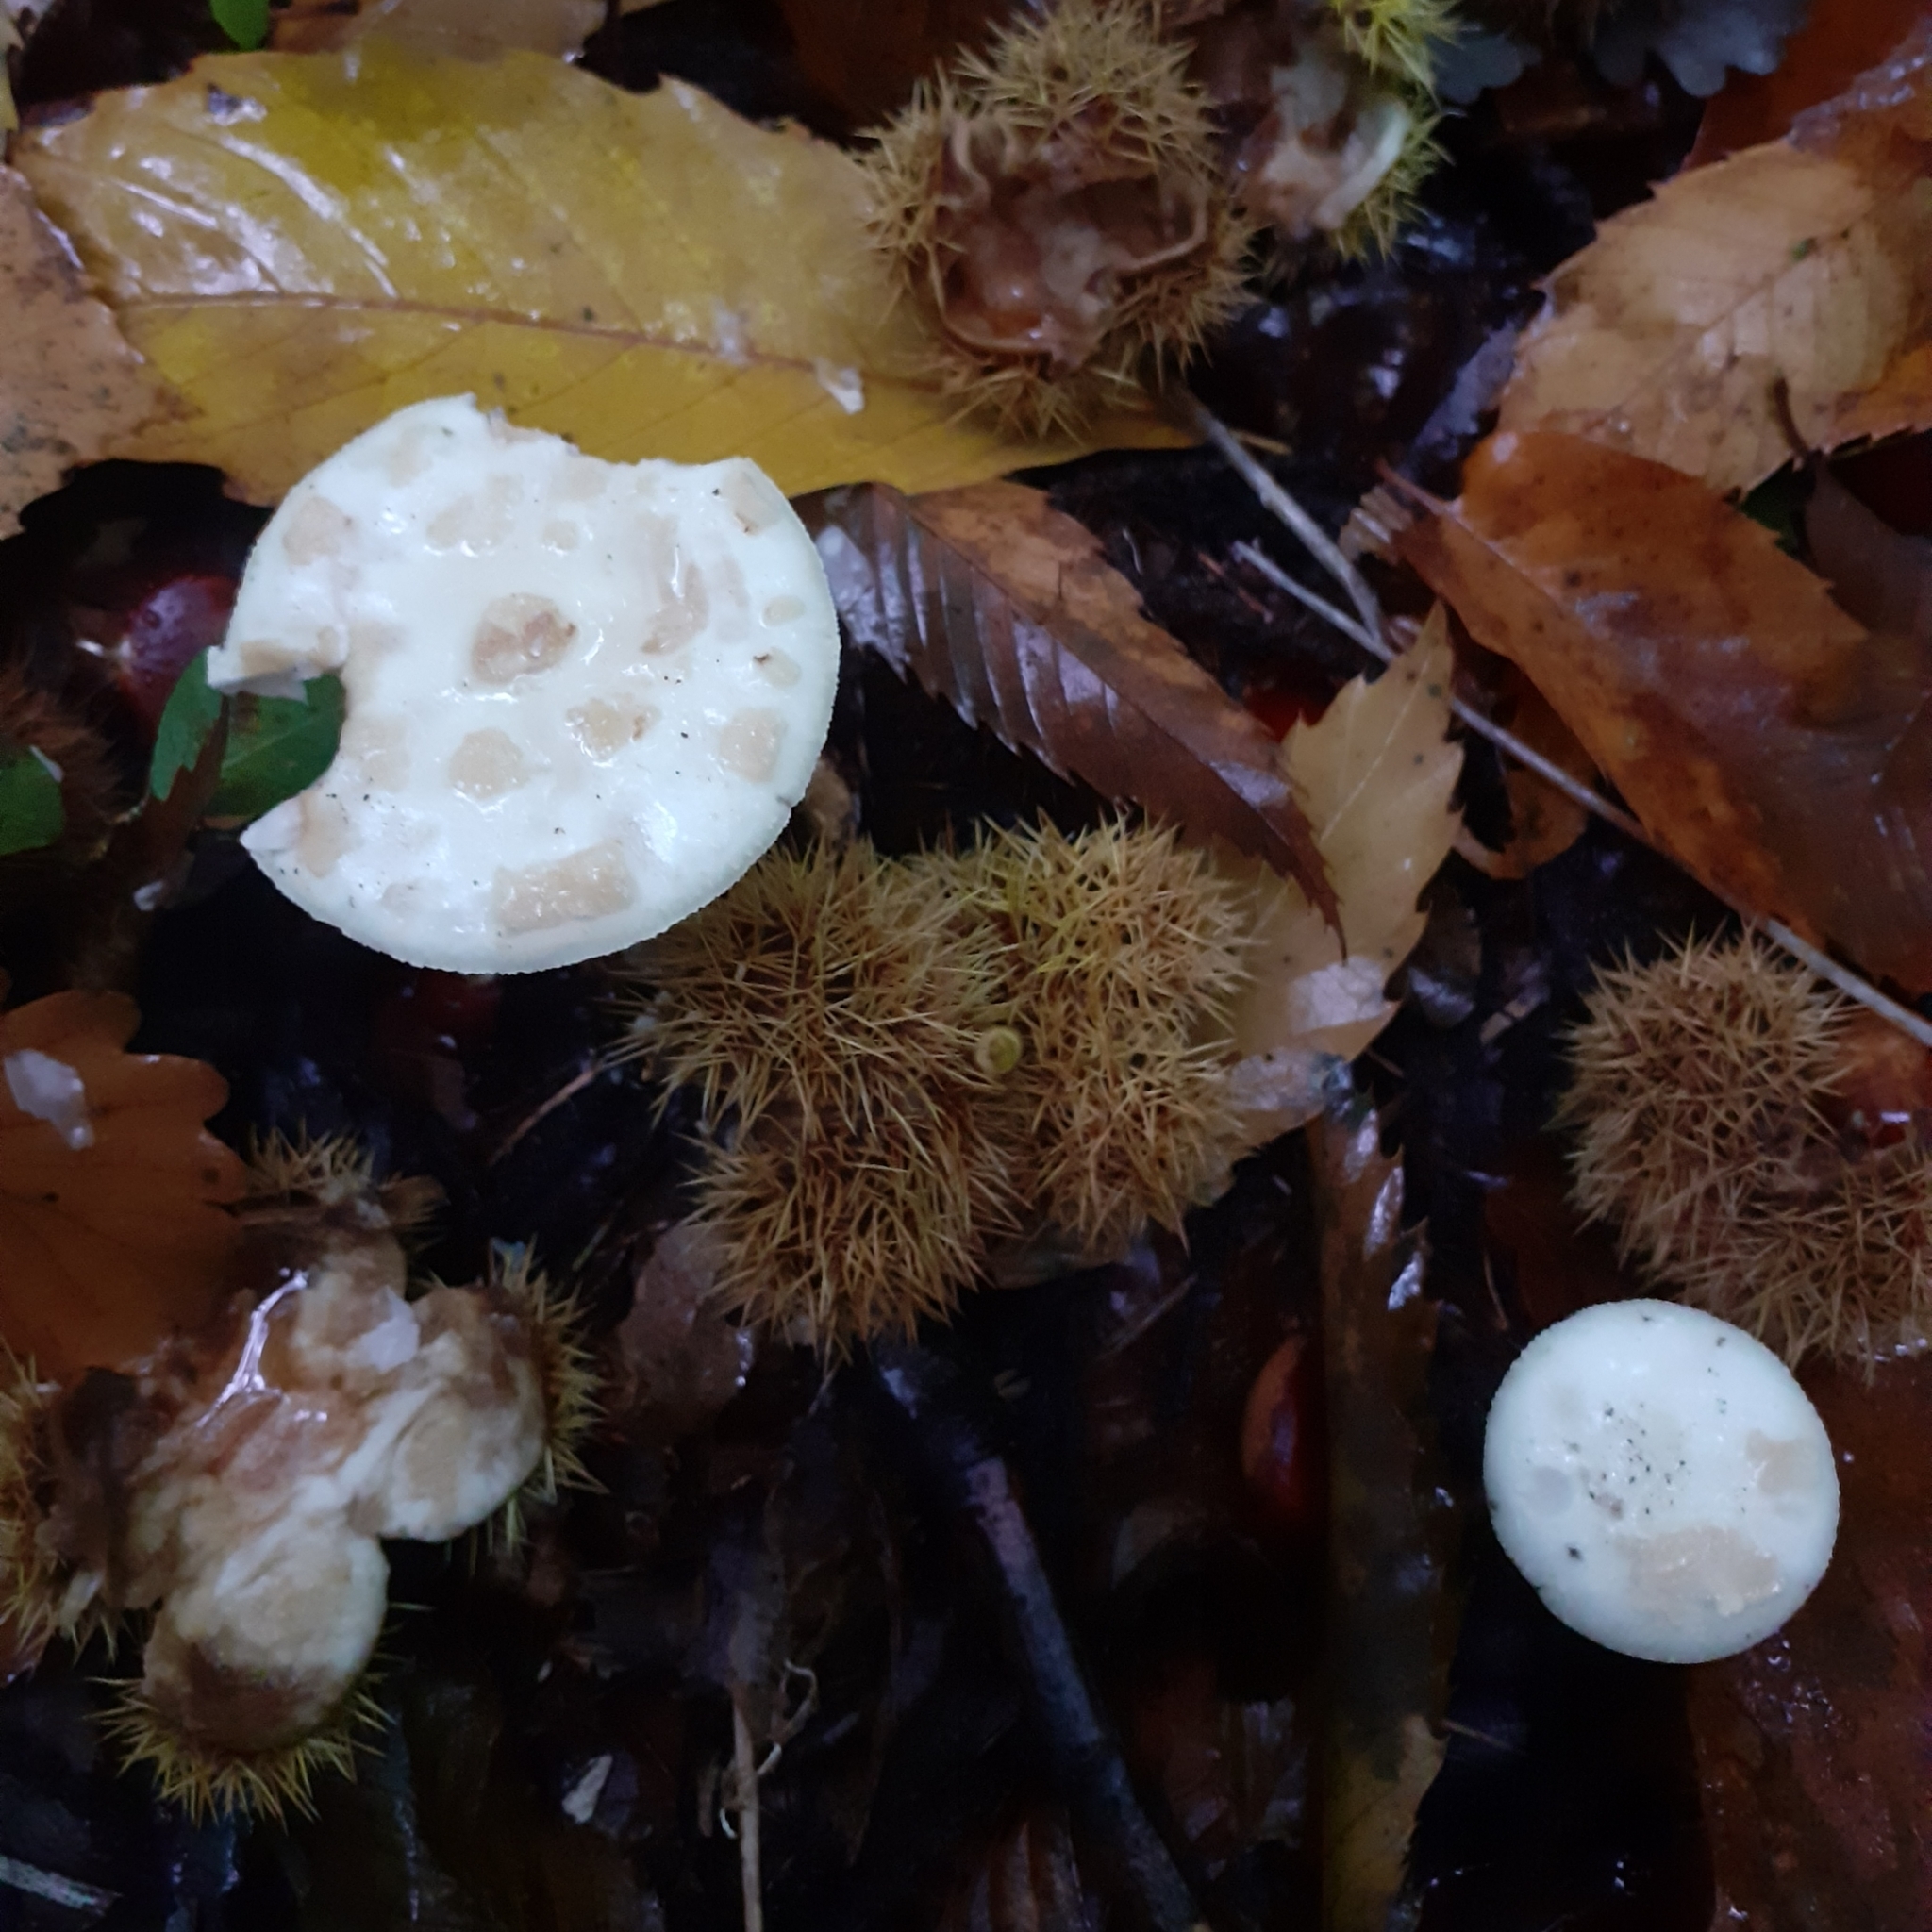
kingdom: Fungi
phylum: Basidiomycota
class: Agaricomycetes
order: Agaricales
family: Amanitaceae
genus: Amanita
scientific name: Amanita citrina
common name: False death-cap
